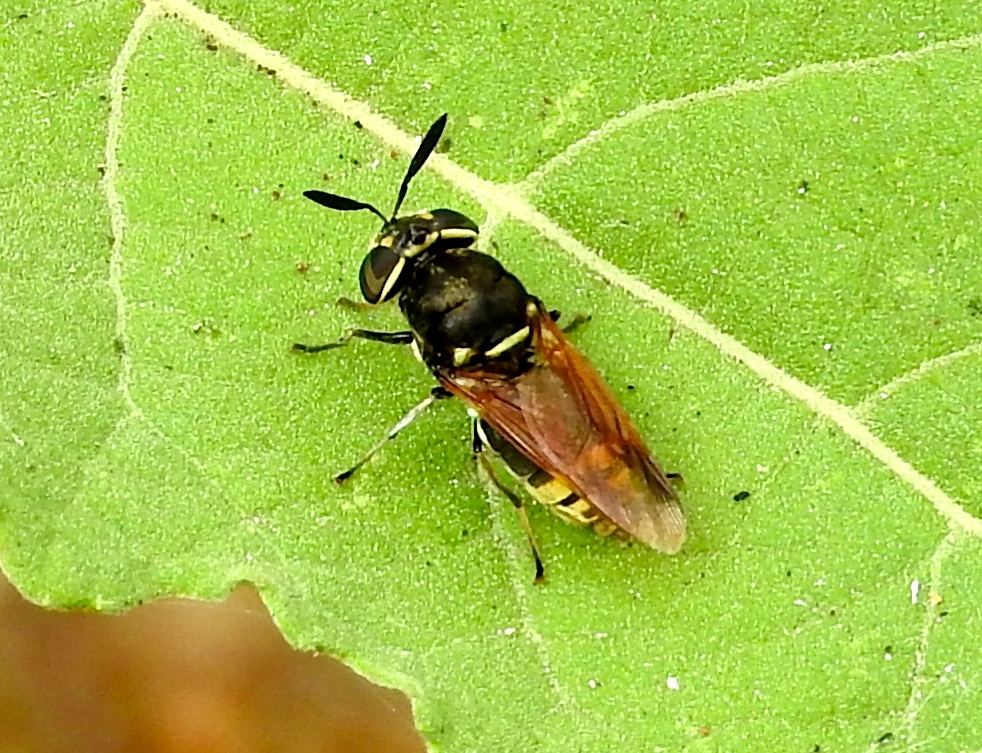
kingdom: Animalia
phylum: Arthropoda
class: Insecta
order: Diptera
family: Stratiomyidae
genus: Hoplitimyia
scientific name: Hoplitimyia
